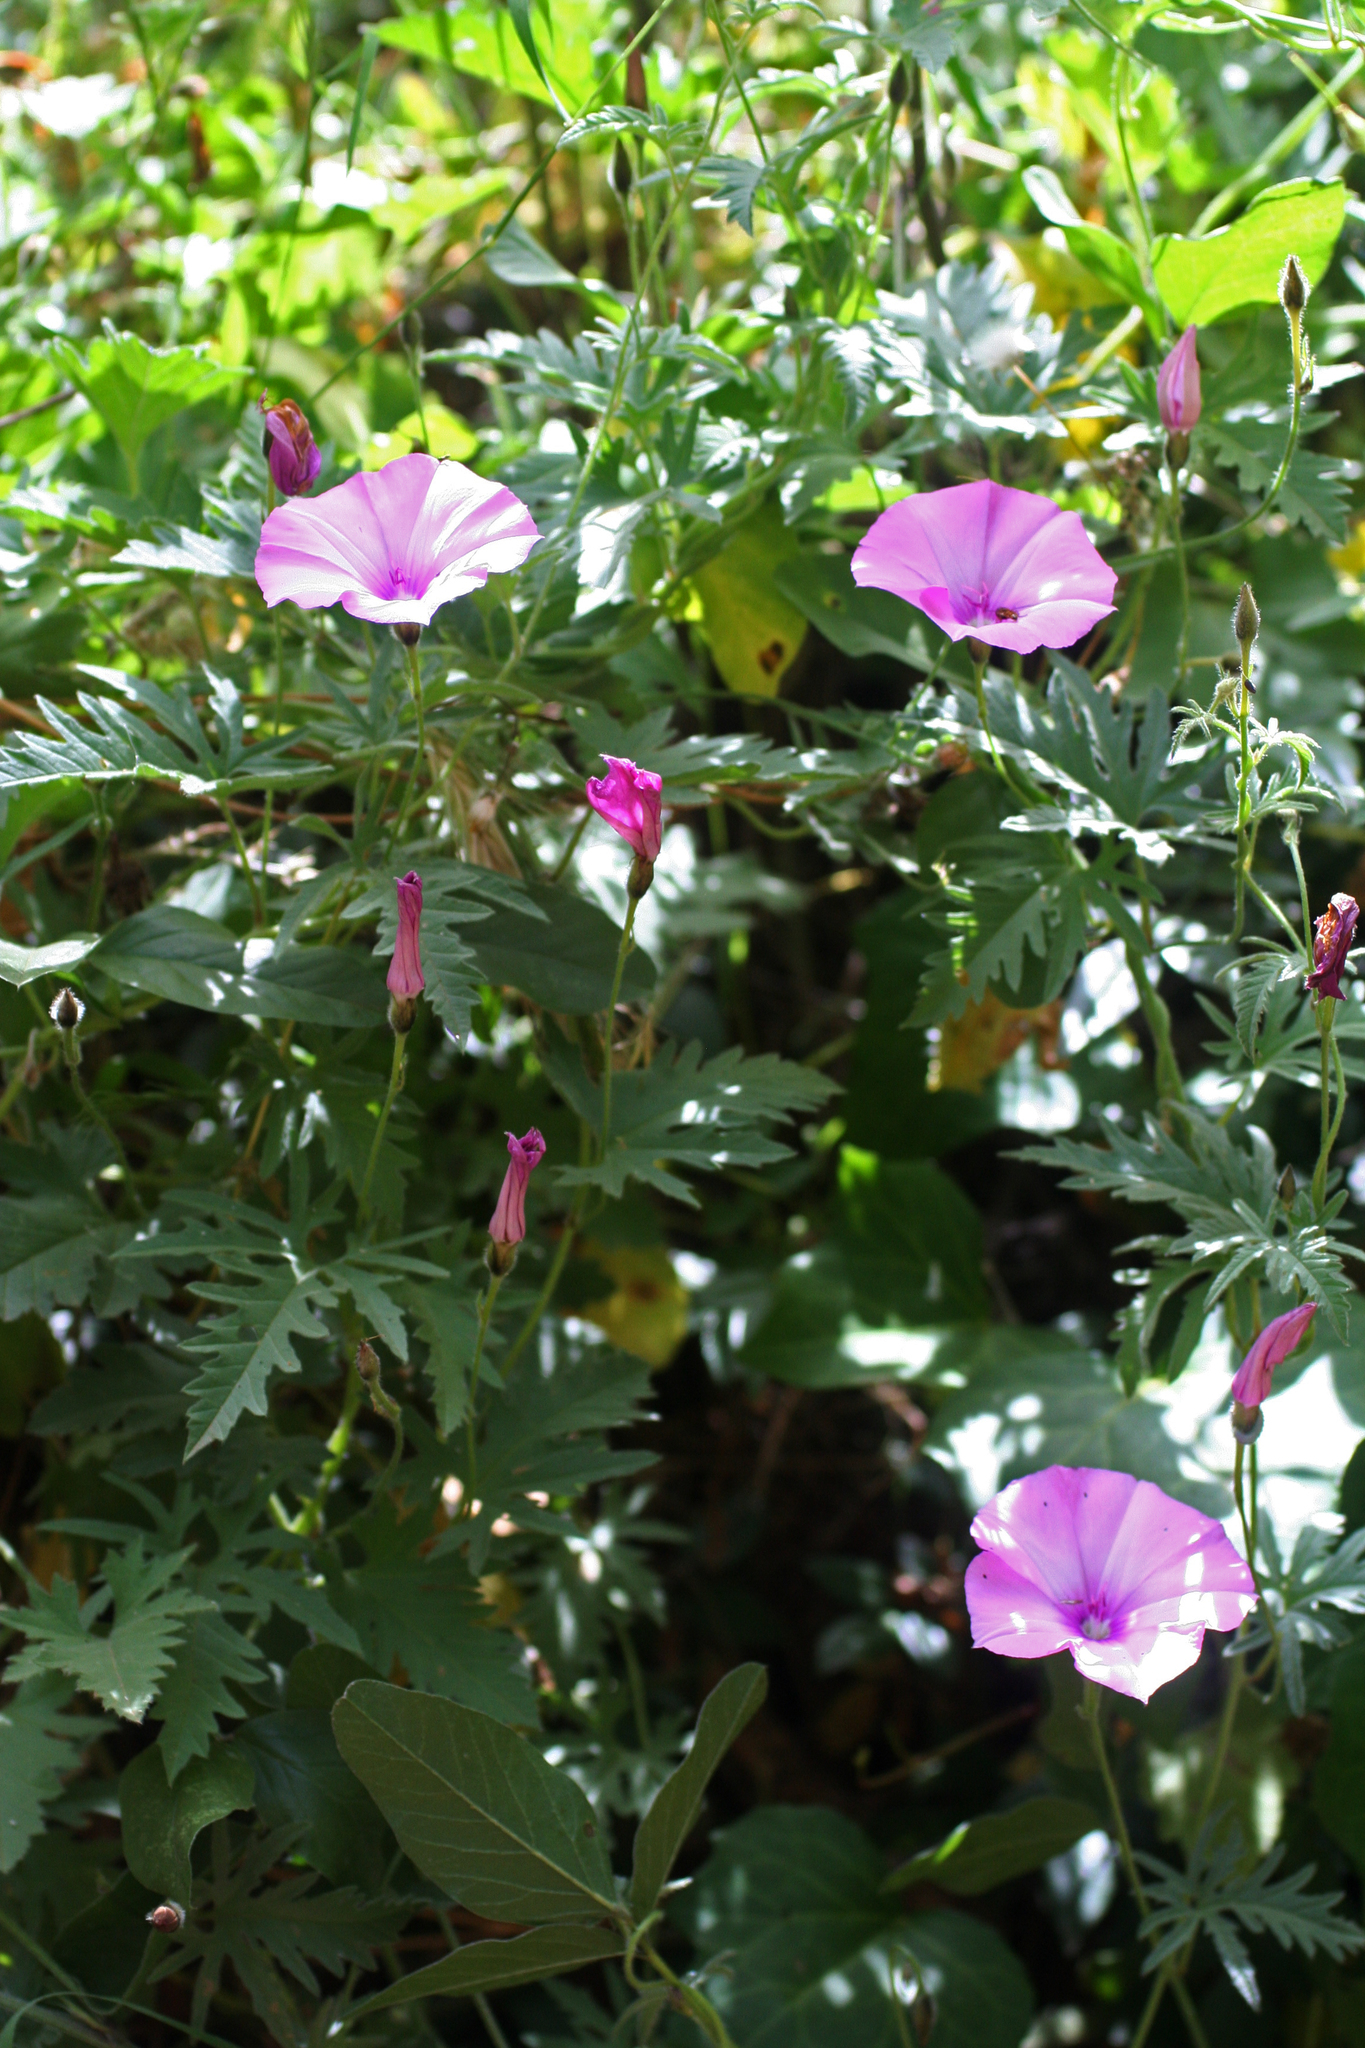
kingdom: Plantae
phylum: Tracheophyta
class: Magnoliopsida
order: Solanales
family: Convolvulaceae
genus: Convolvulus
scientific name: Convolvulus althaeoides
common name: Mallow bindweed
